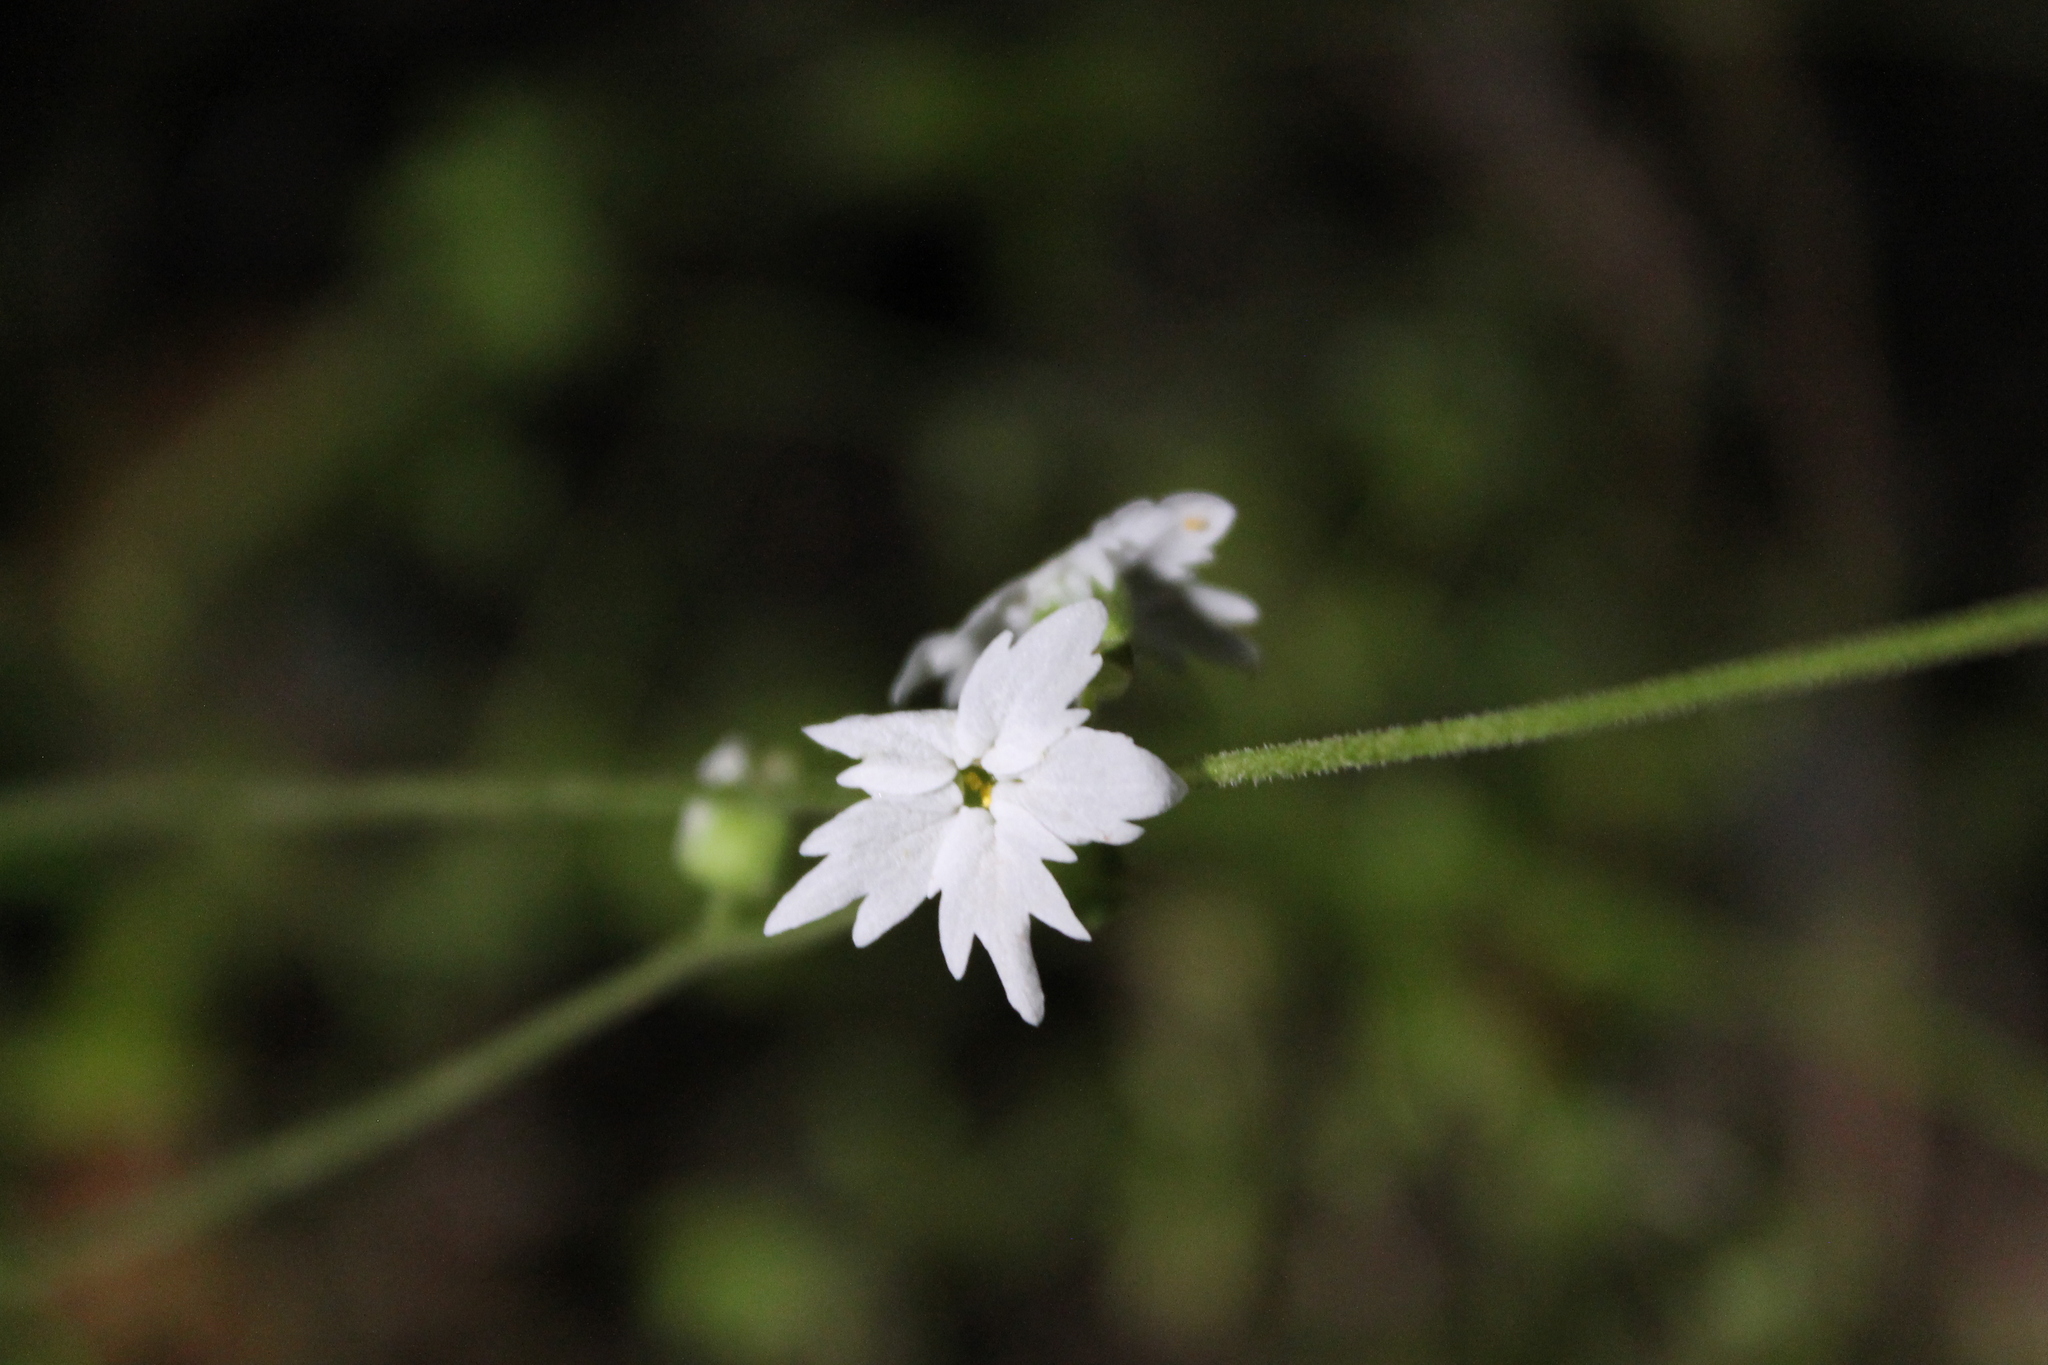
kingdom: Plantae
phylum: Tracheophyta
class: Magnoliopsida
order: Saxifragales
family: Saxifragaceae
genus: Lithophragma
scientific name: Lithophragma heterophyllum
